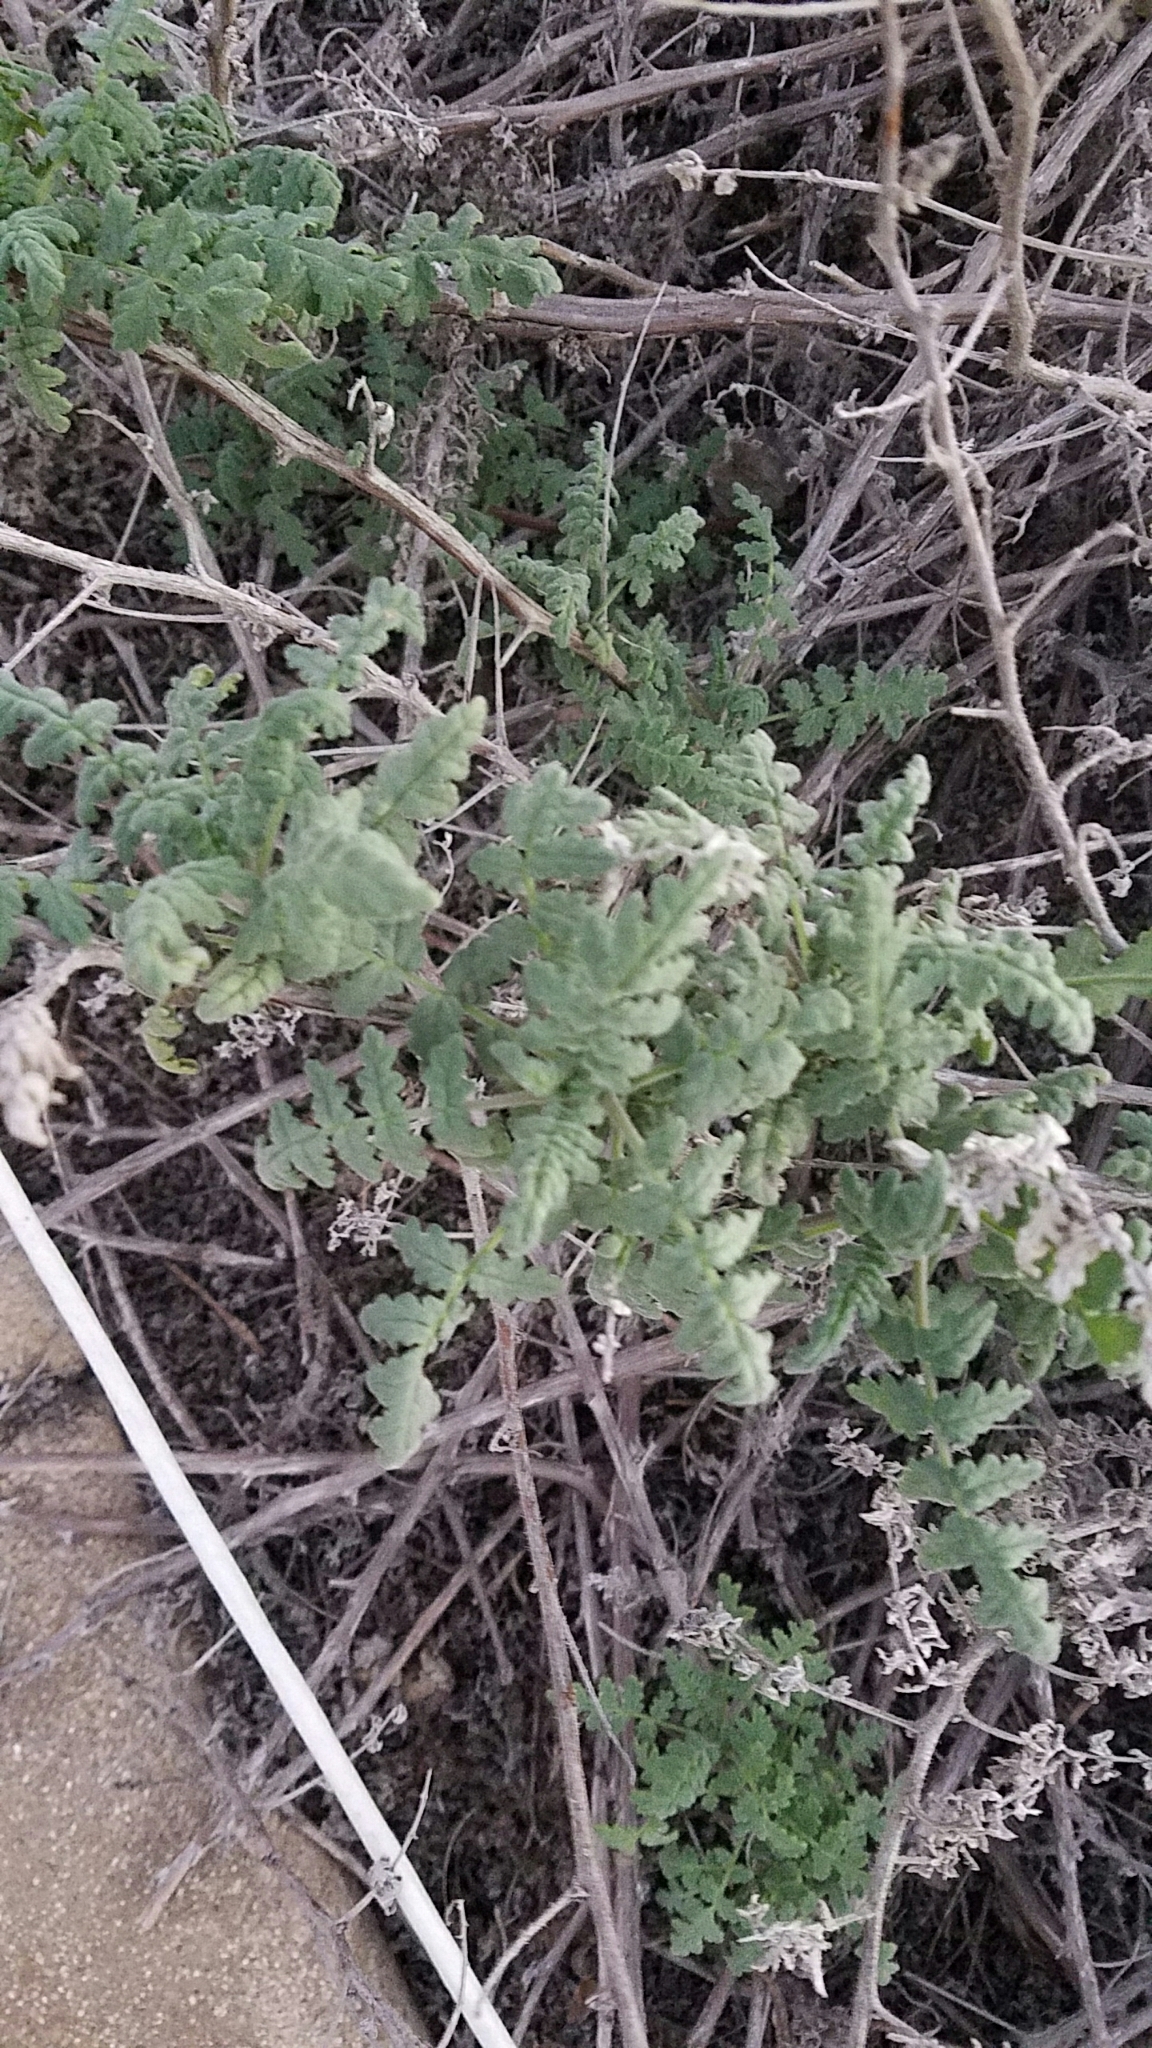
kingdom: Plantae
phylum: Tracheophyta
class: Magnoliopsida
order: Boraginales
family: Hydrophyllaceae
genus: Phacelia
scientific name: Phacelia ramosissima
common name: Branching phacelia
